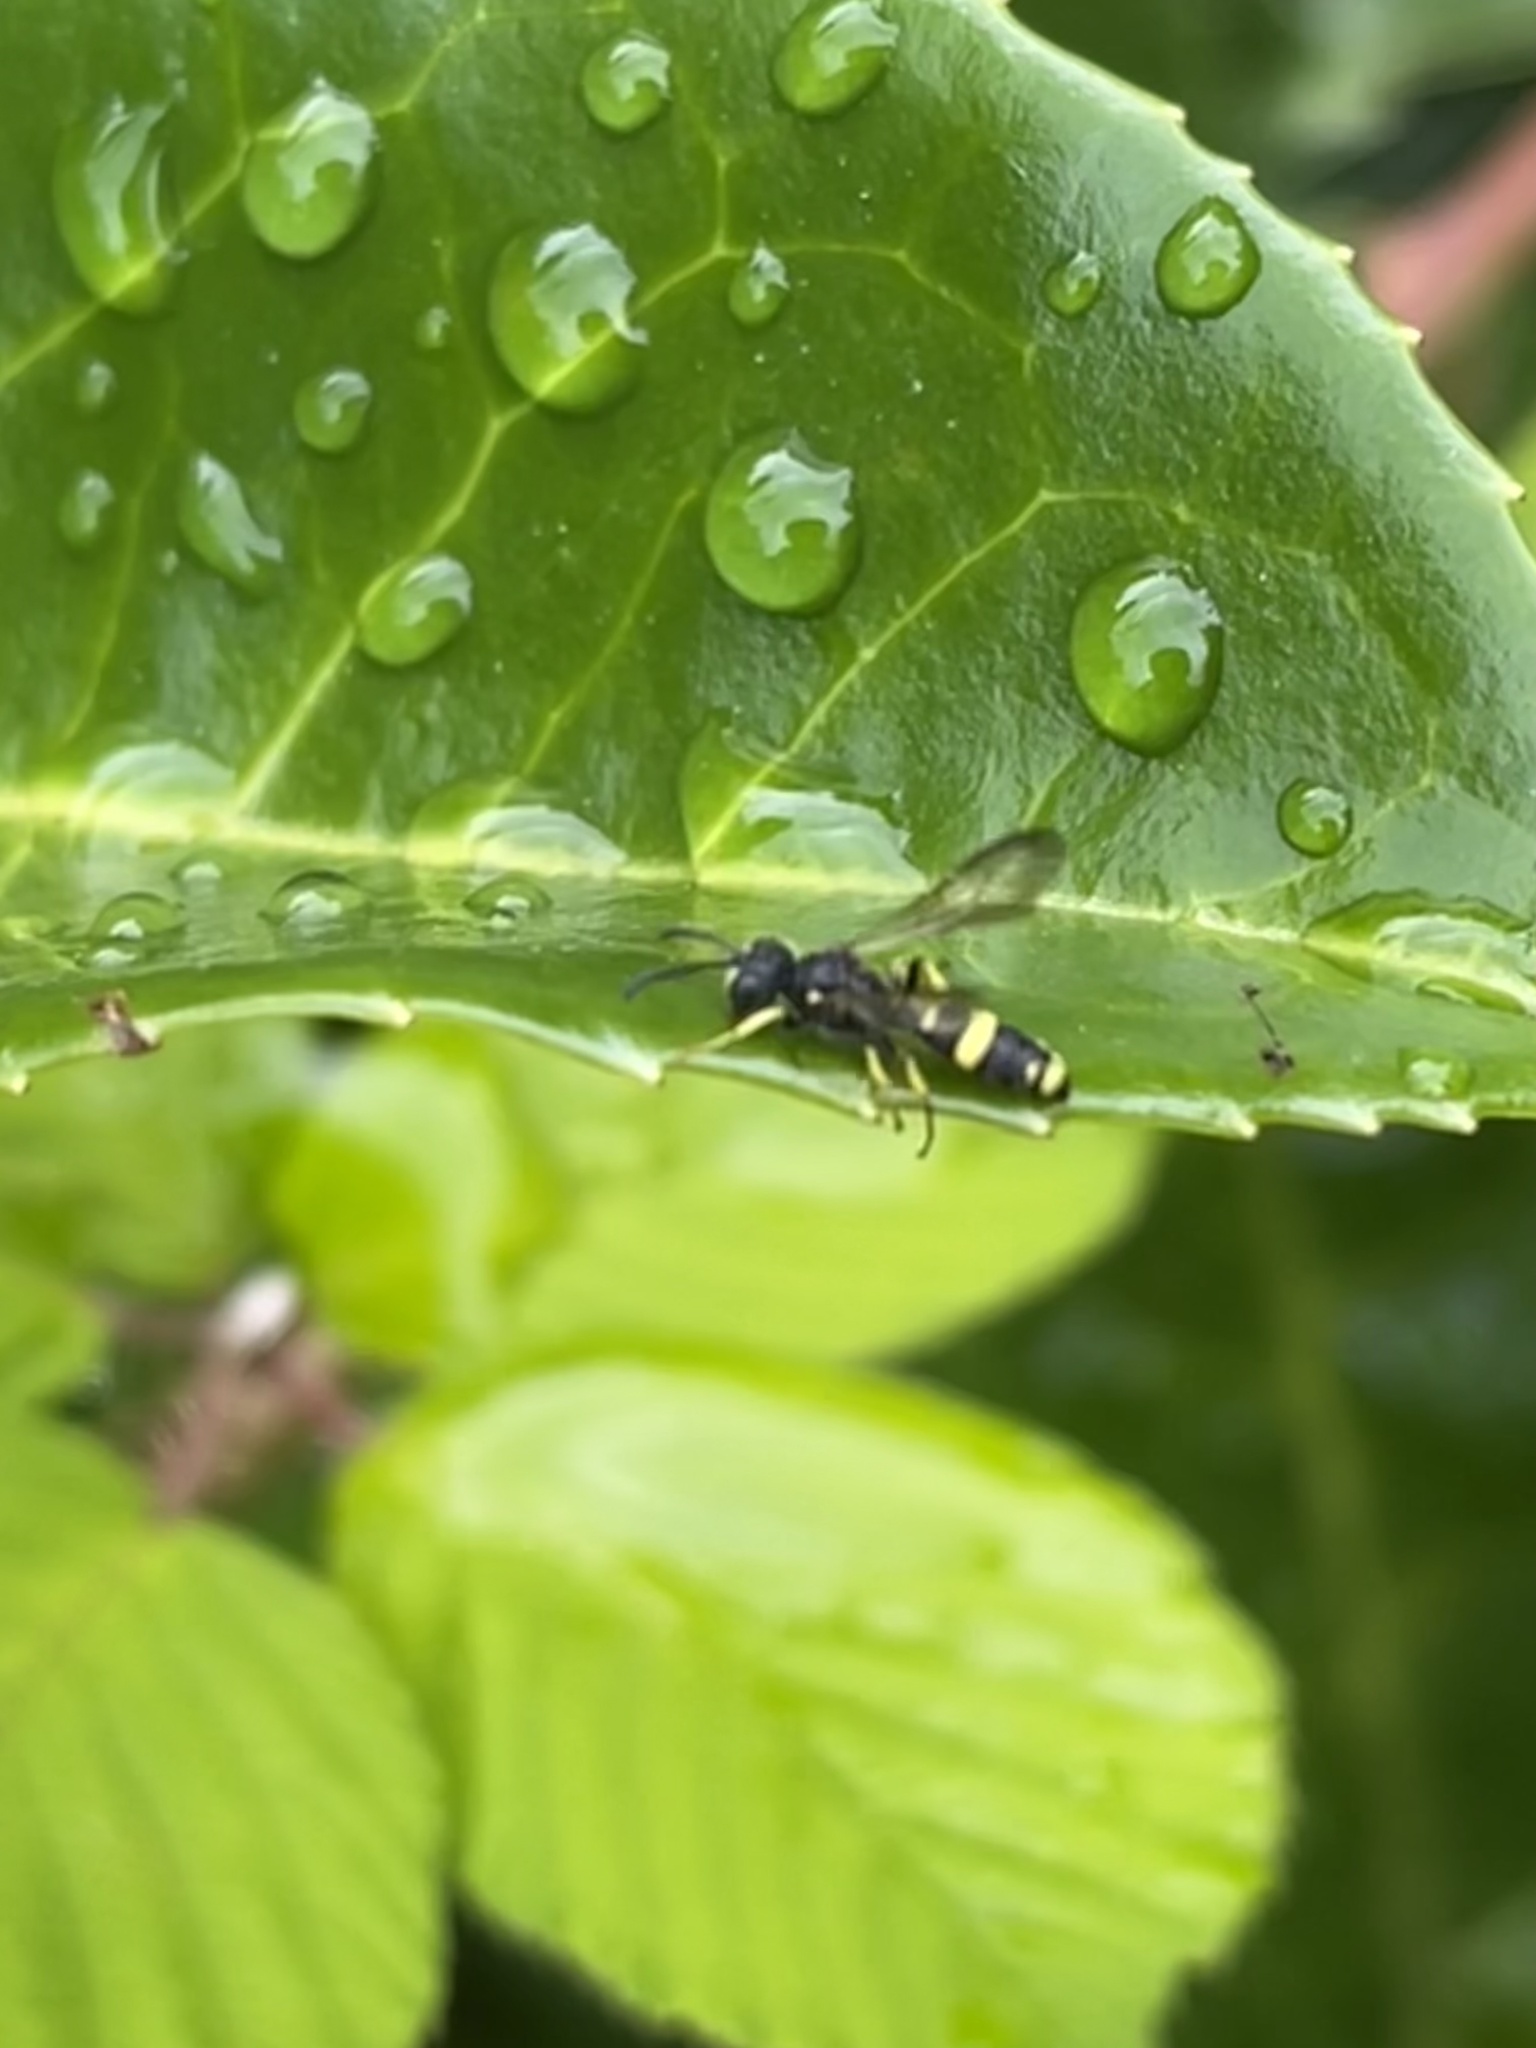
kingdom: Animalia
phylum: Arthropoda
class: Insecta
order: Hymenoptera
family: Crabronidae
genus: Cerceris
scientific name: Cerceris rybyensis
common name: Ornate tailed digger wasp
